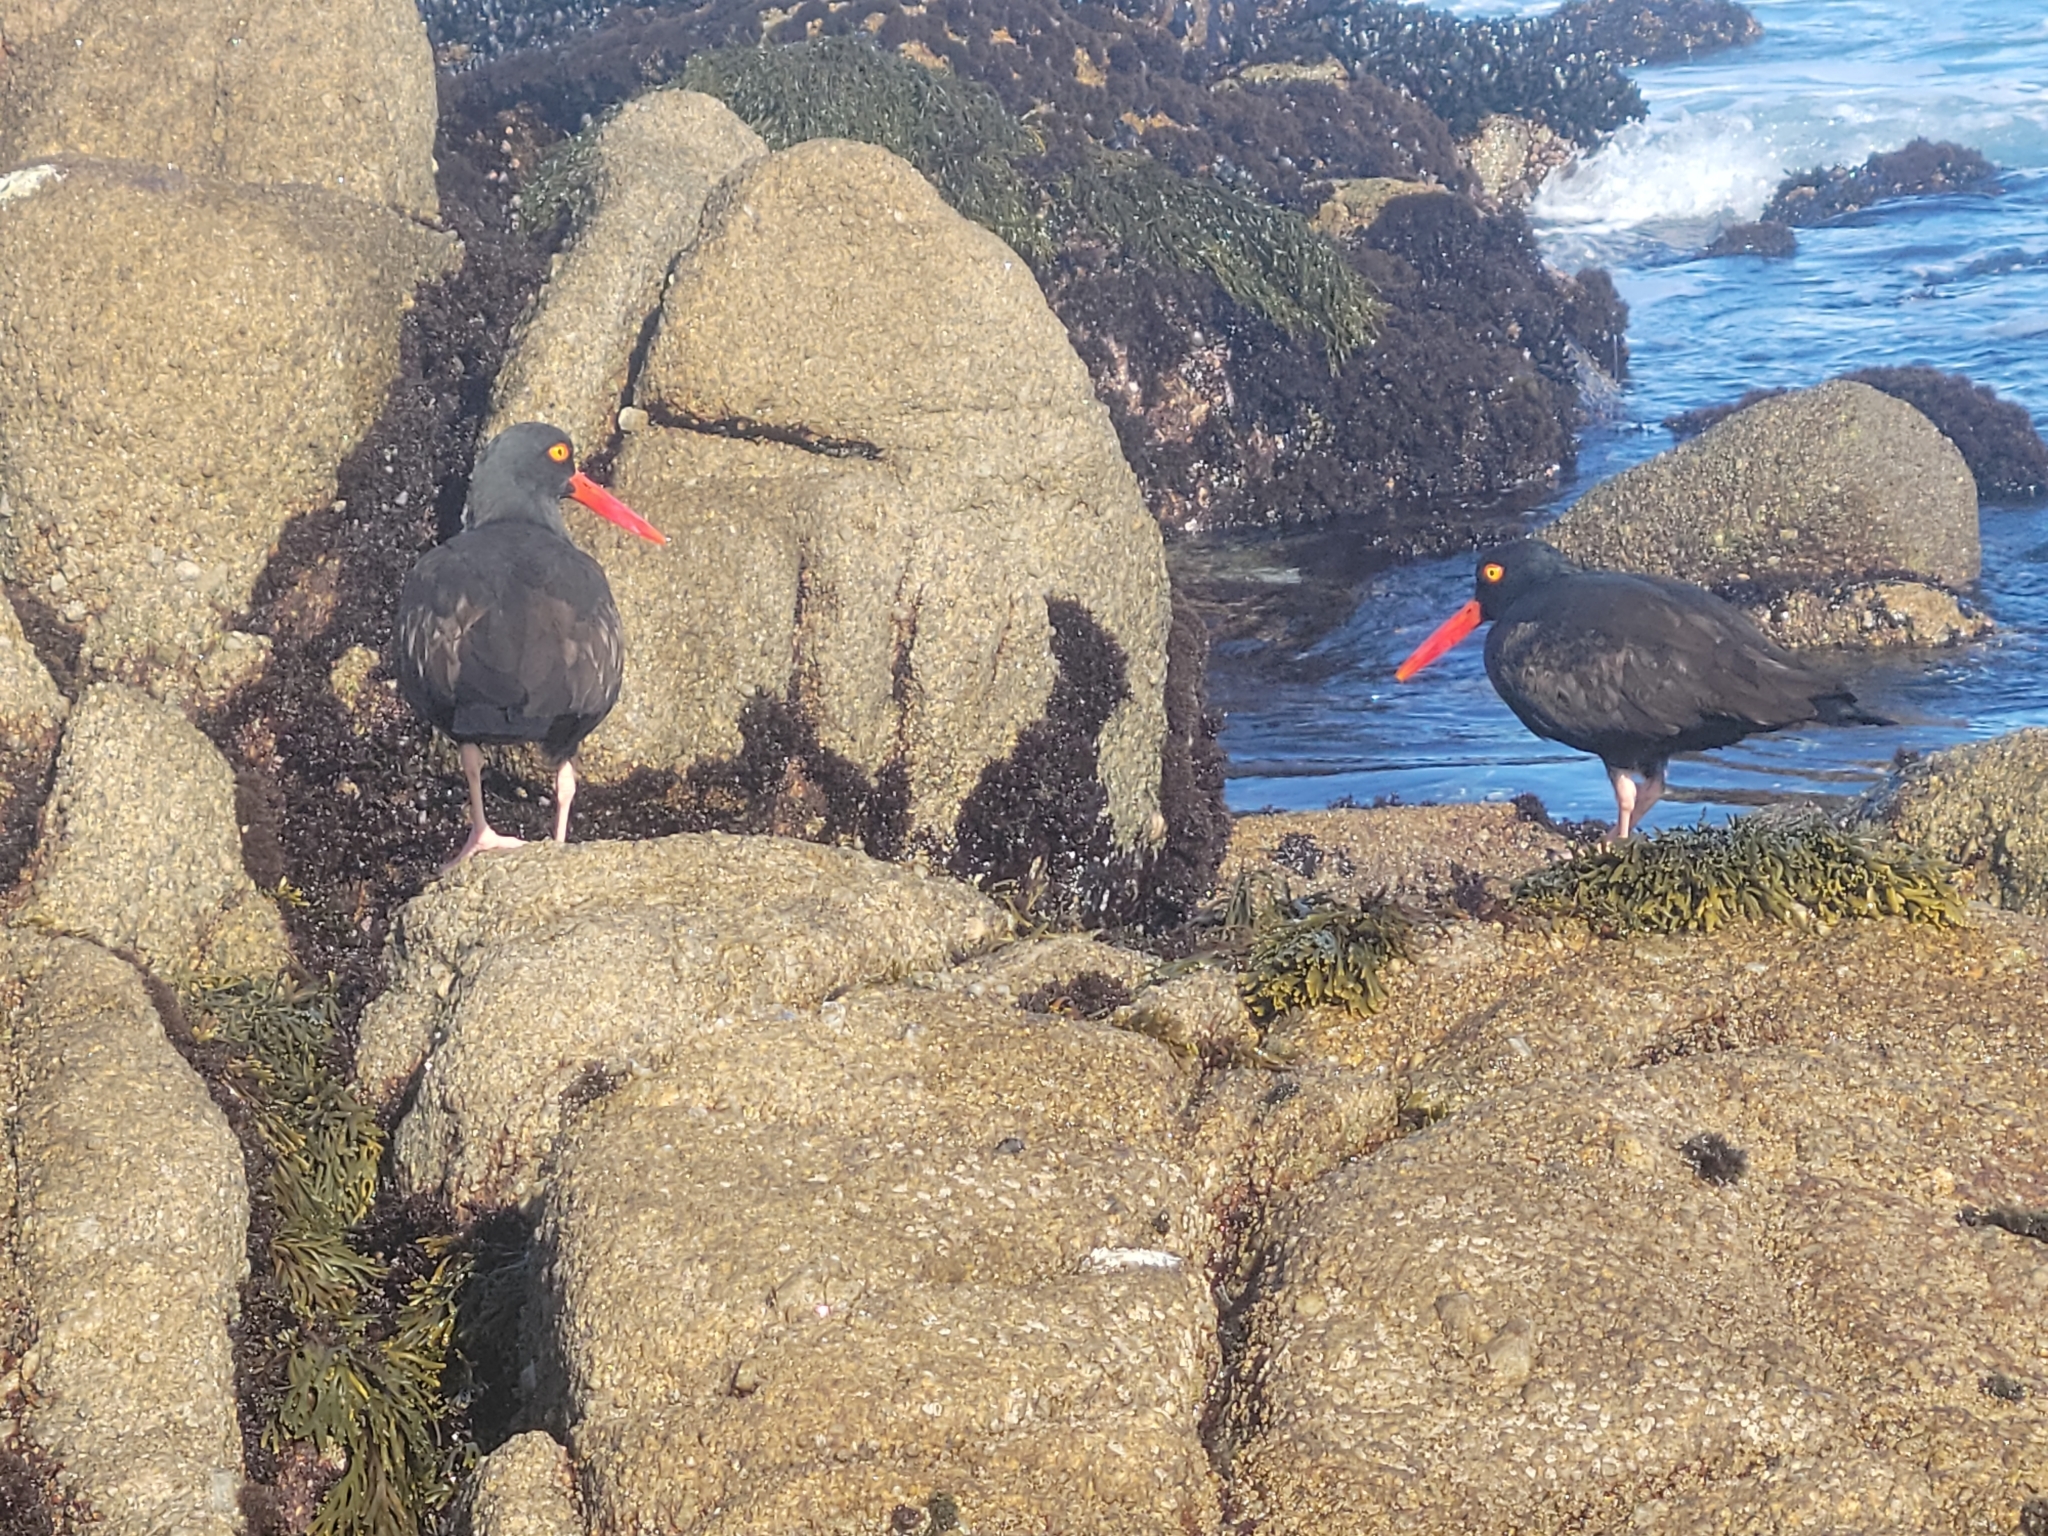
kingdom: Animalia
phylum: Chordata
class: Aves
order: Charadriiformes
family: Haematopodidae
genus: Haematopus
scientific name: Haematopus bachmani
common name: Black oystercatcher
